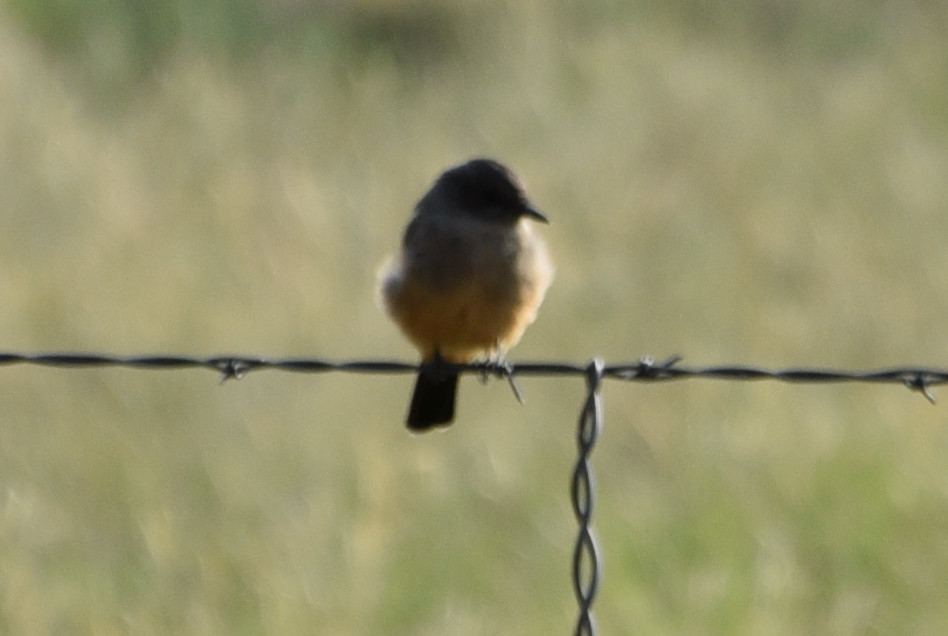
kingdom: Animalia
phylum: Chordata
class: Aves
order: Passeriformes
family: Tyrannidae
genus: Sayornis
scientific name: Sayornis saya
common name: Say's phoebe
